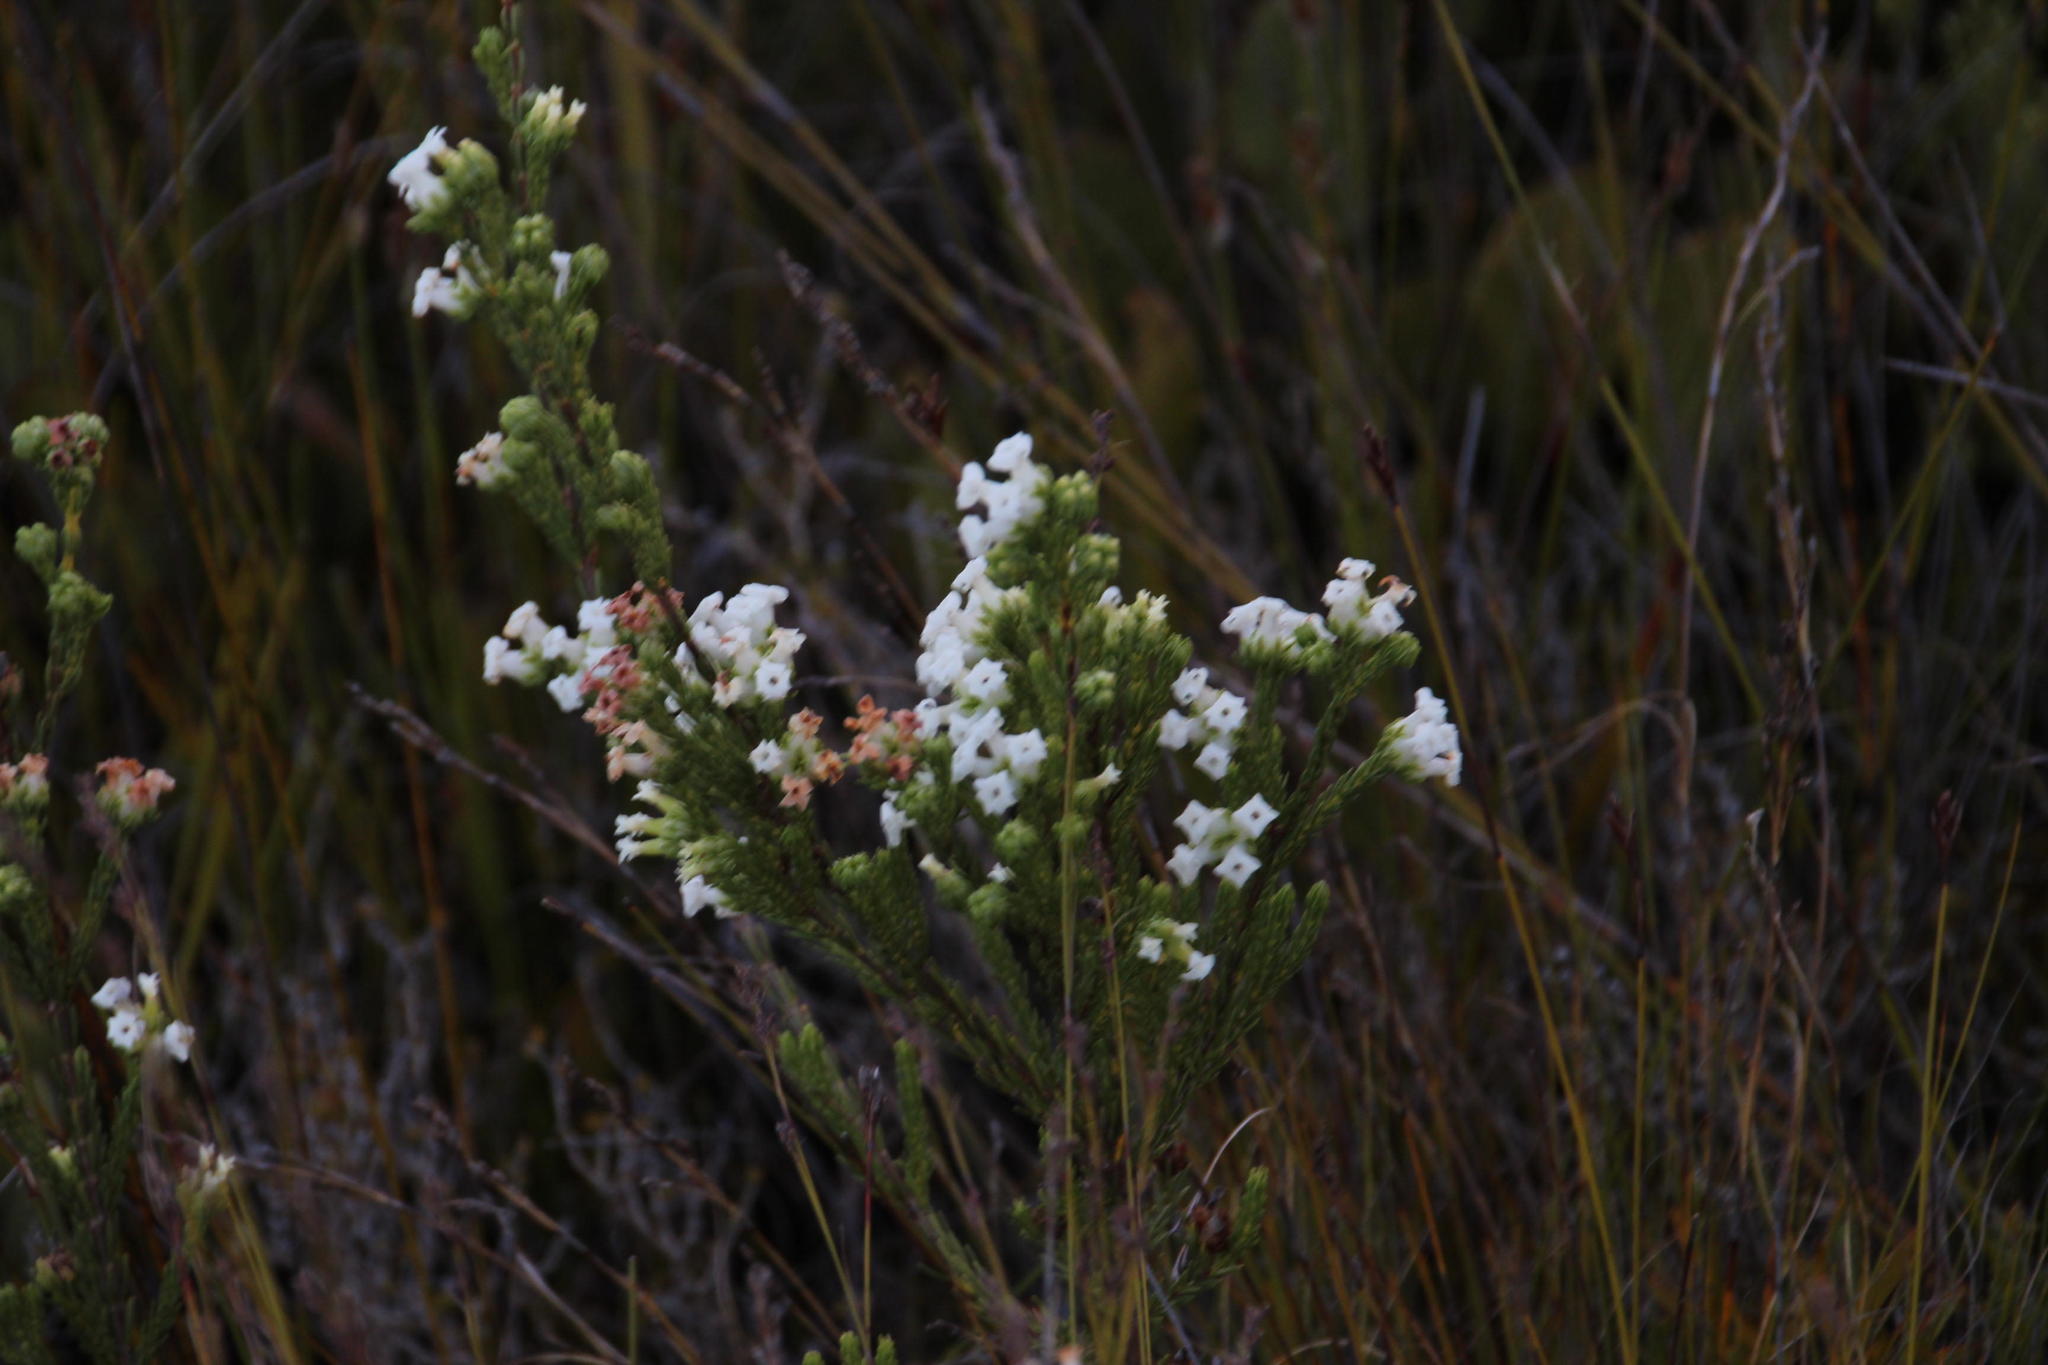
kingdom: Plantae
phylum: Tracheophyta
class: Magnoliopsida
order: Ericales
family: Ericaceae
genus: Erica
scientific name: Erica denticulata
